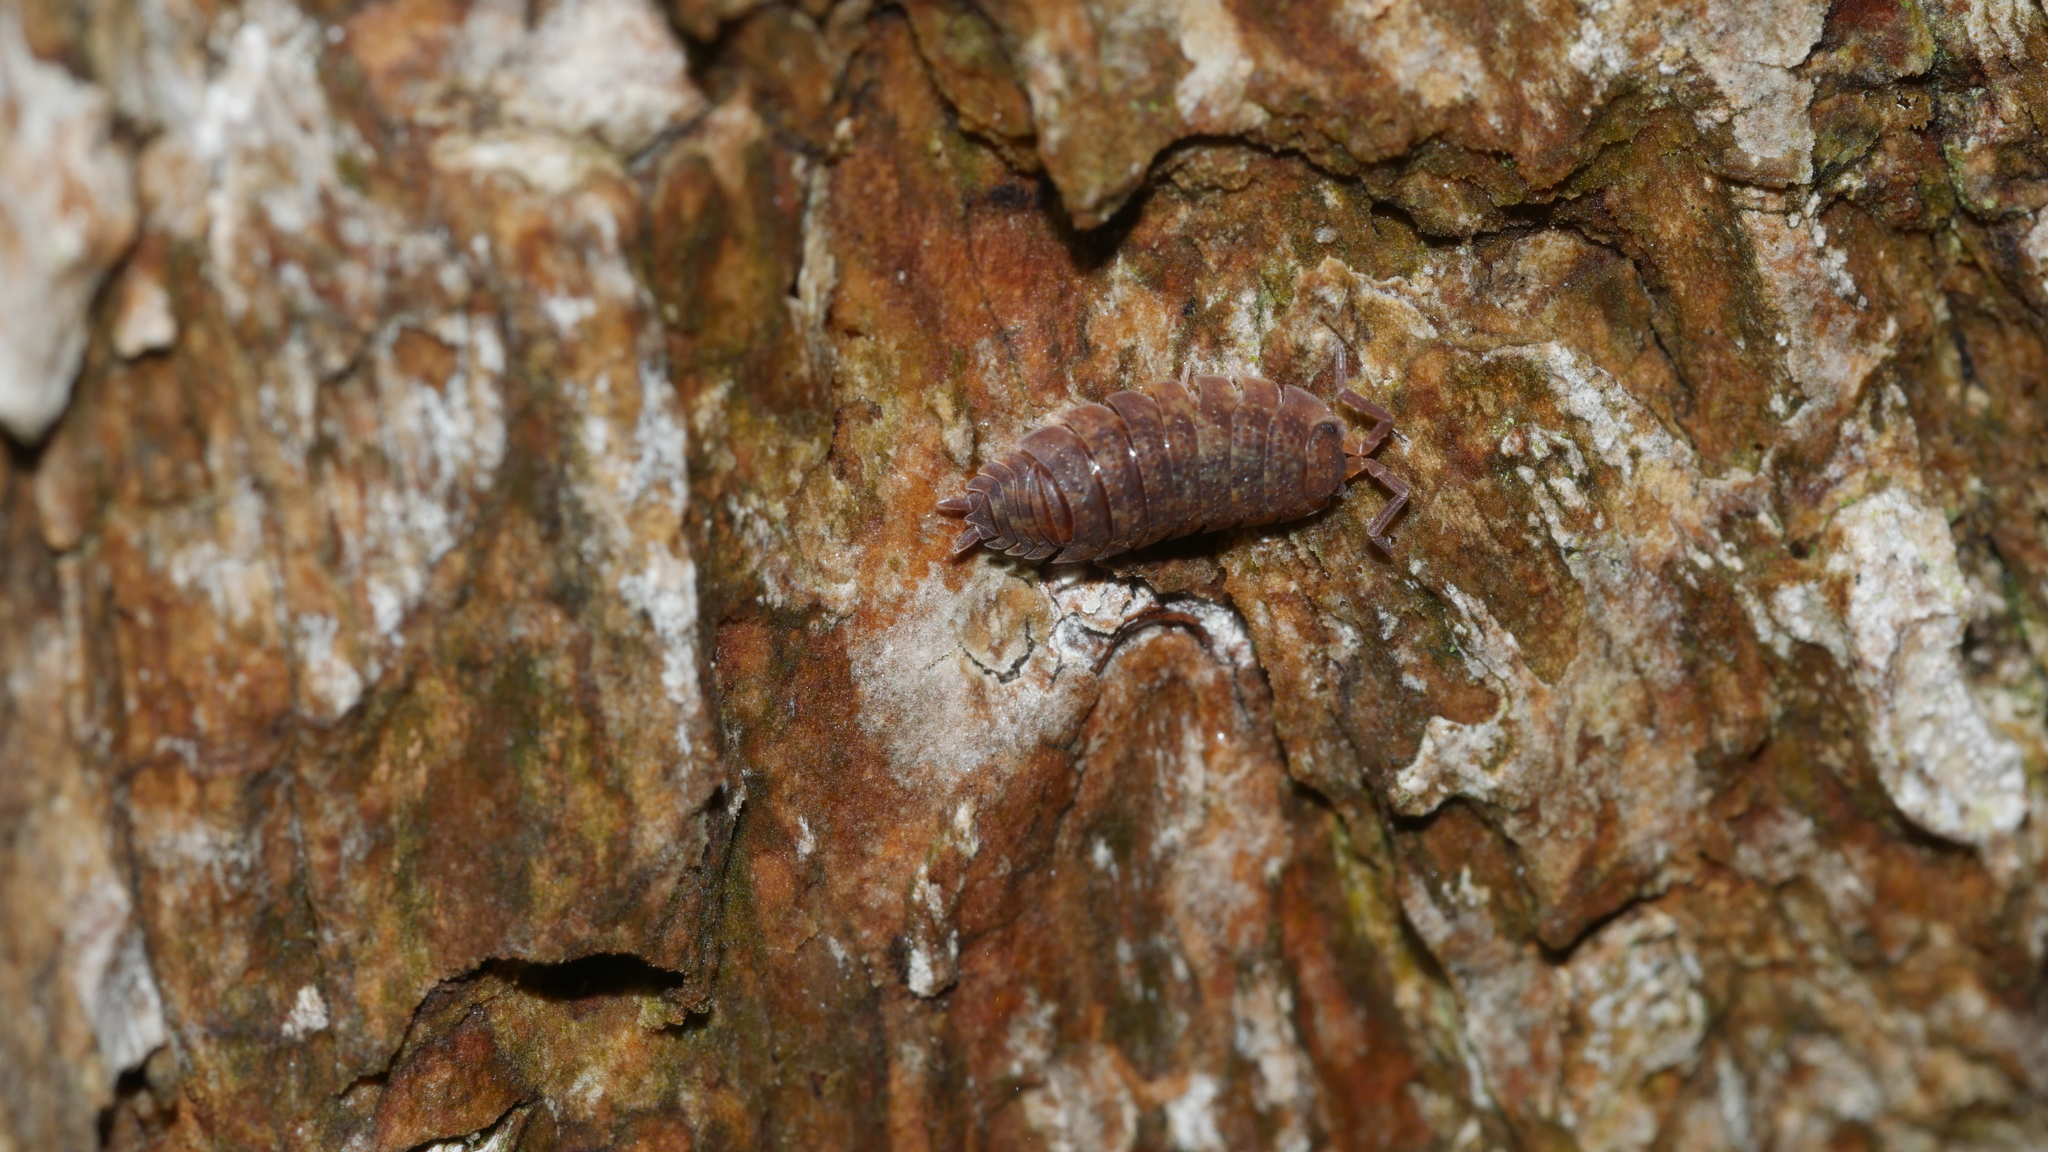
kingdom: Animalia
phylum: Arthropoda
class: Malacostraca
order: Isopoda
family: Porcellionidae
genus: Porcellio
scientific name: Porcellio scaber
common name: Common rough woodlouse
